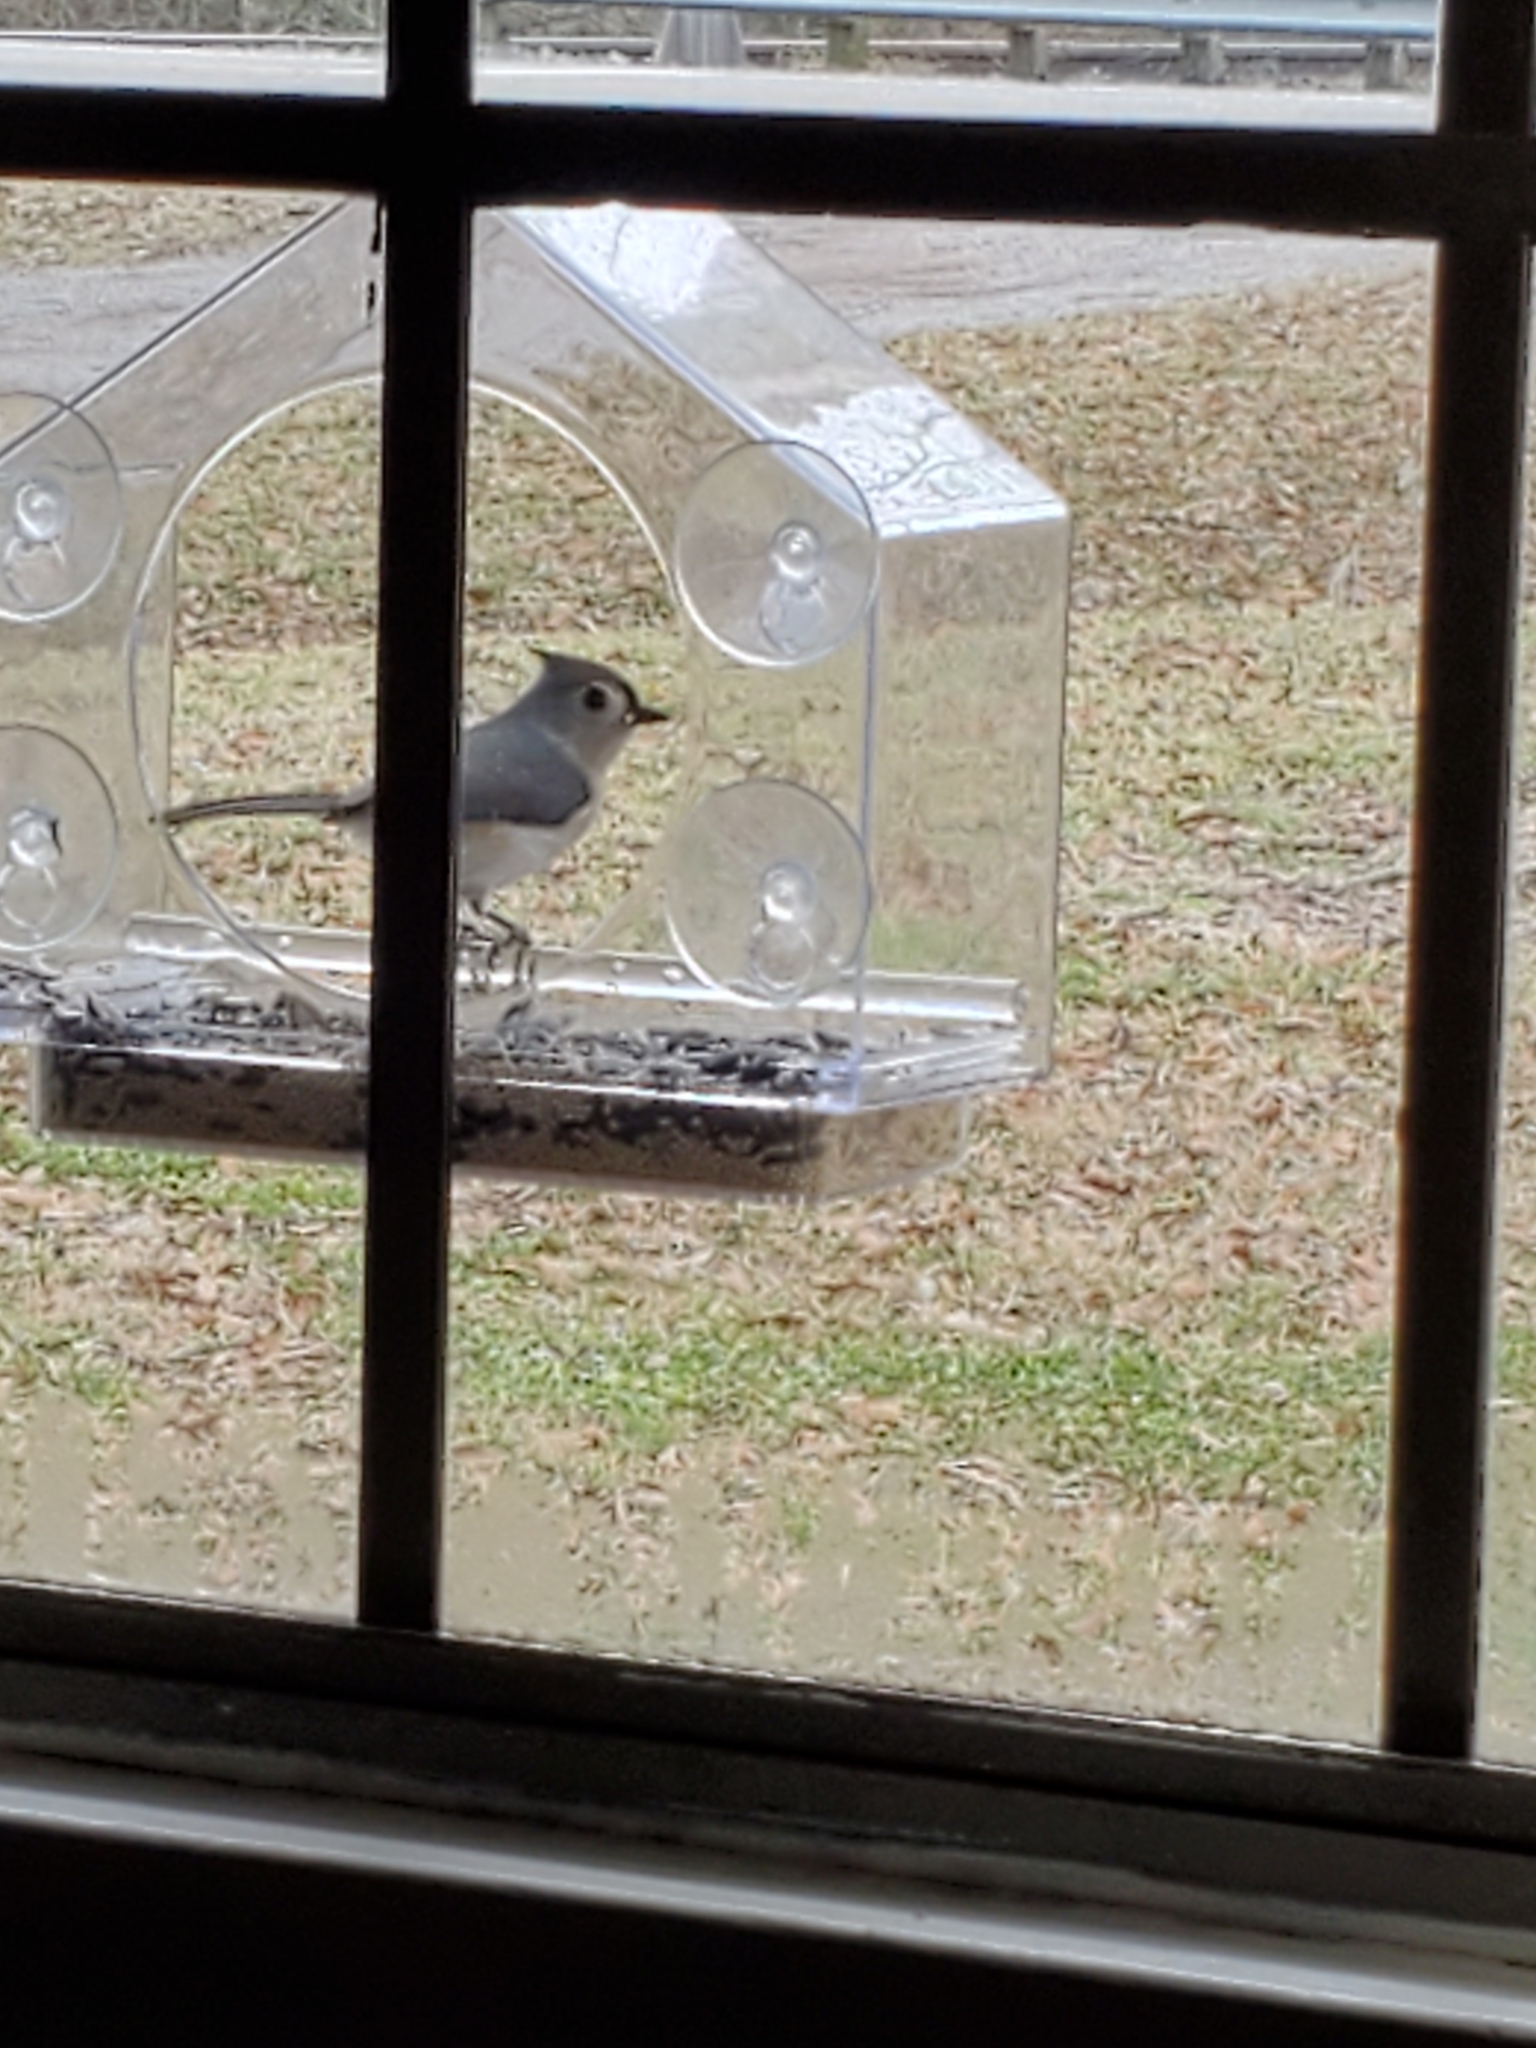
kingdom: Animalia
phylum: Chordata
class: Aves
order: Passeriformes
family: Paridae
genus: Baeolophus
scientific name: Baeolophus bicolor
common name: Tufted titmouse
